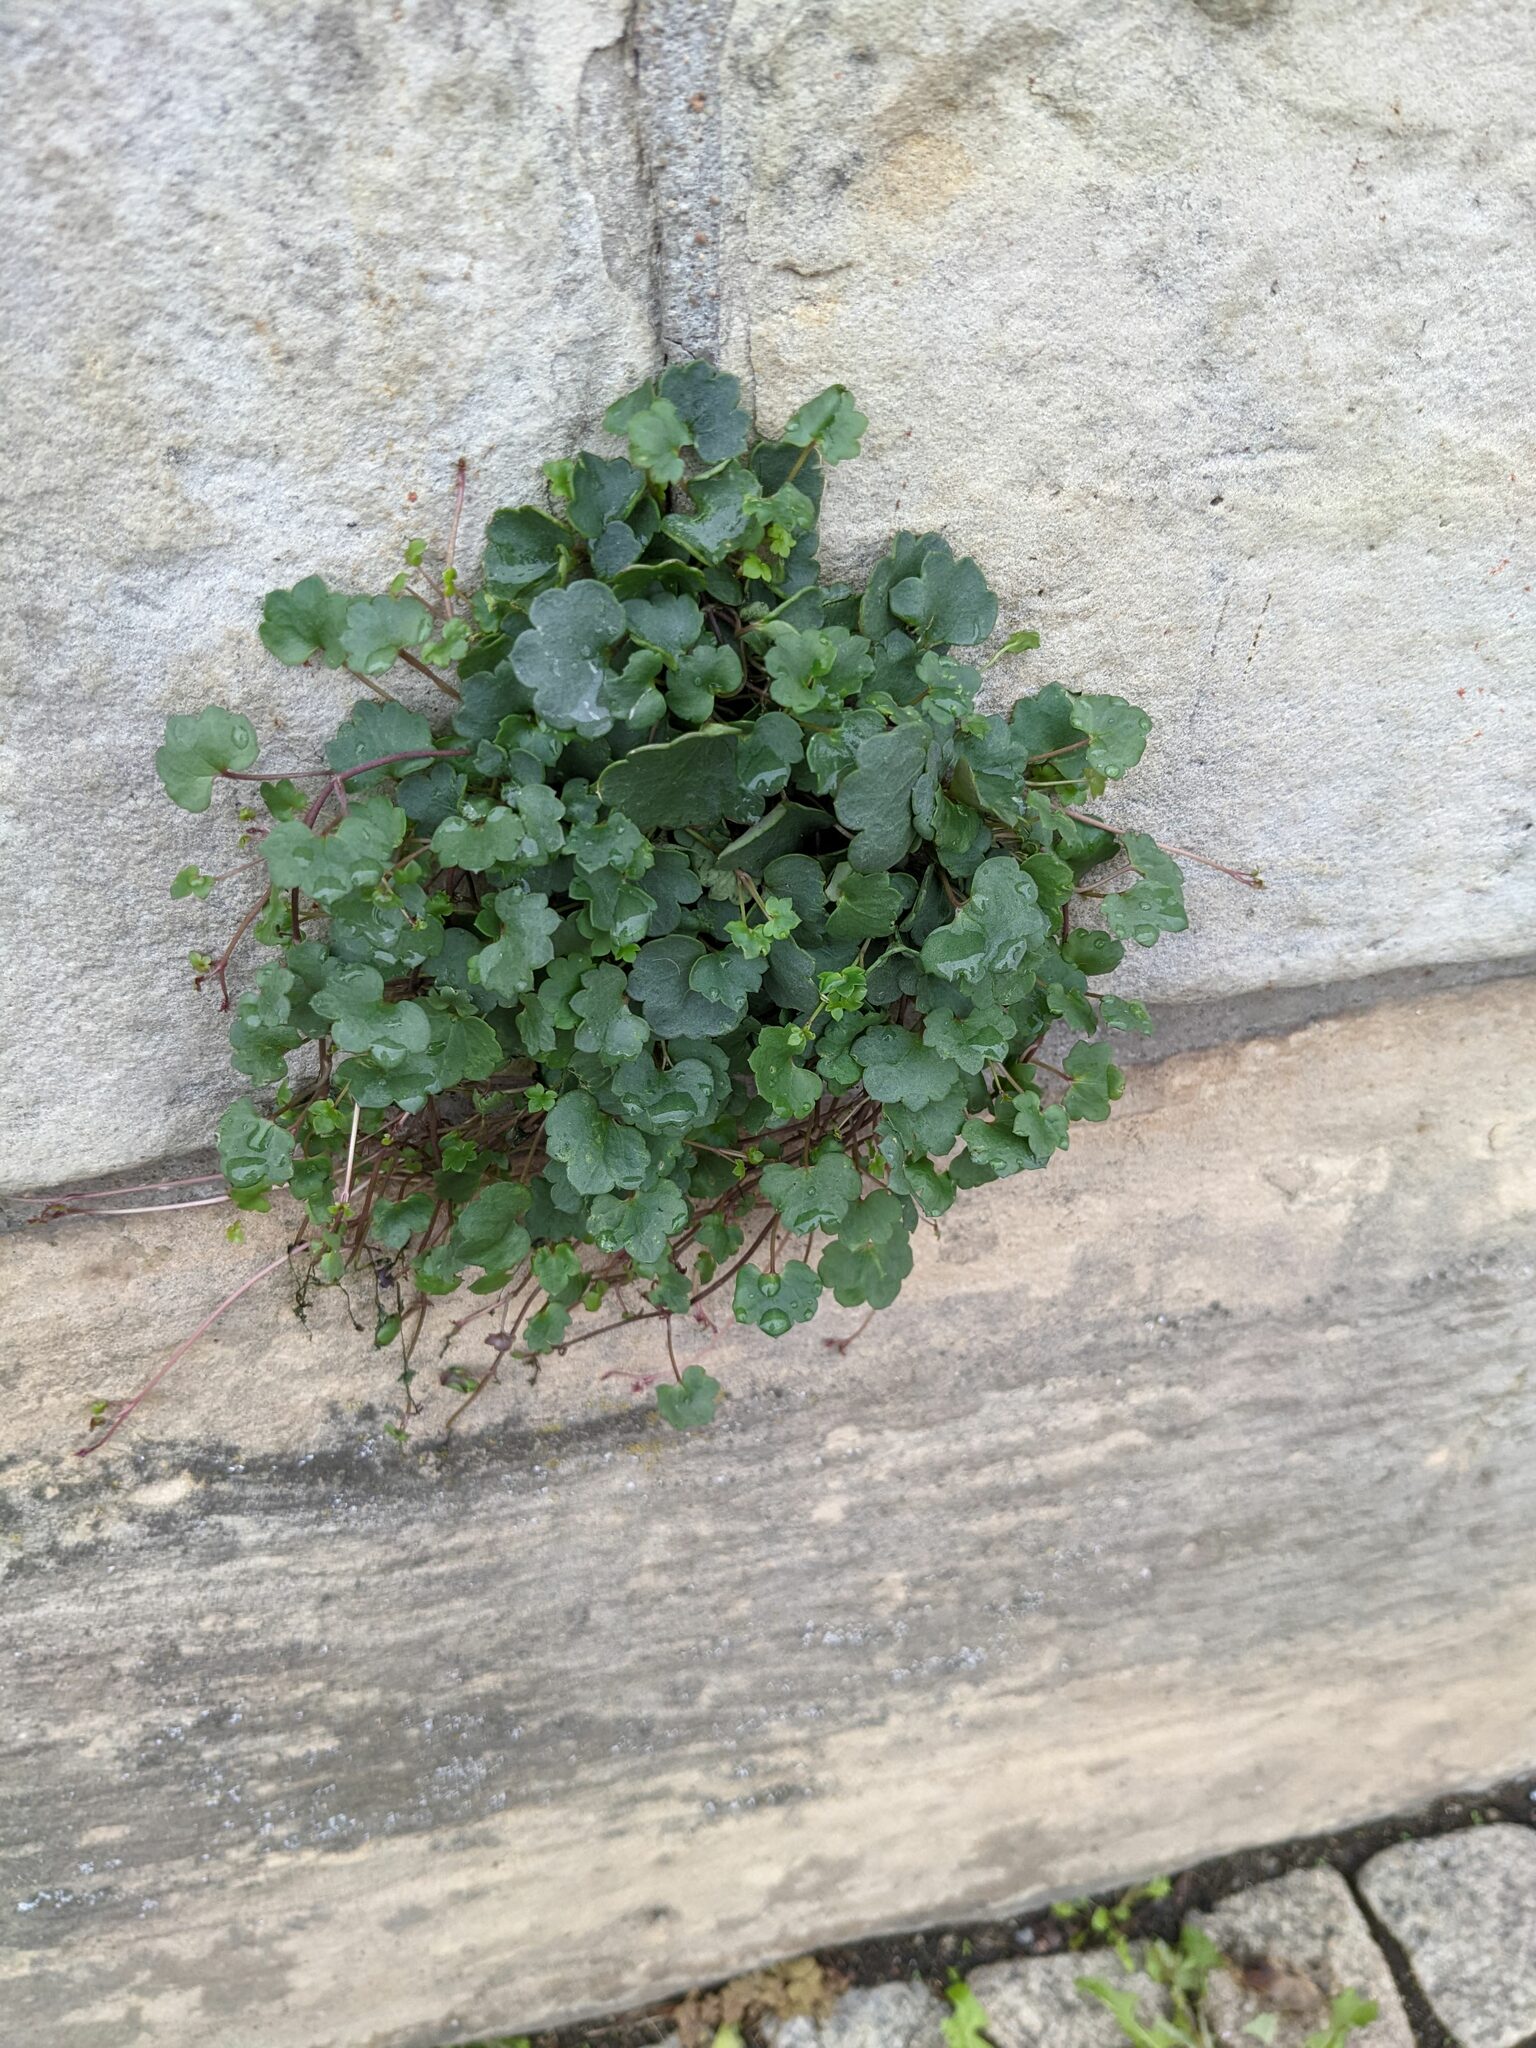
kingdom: Plantae
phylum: Tracheophyta
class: Magnoliopsida
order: Lamiales
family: Plantaginaceae
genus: Cymbalaria
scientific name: Cymbalaria muralis
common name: Ivy-leaved toadflax
